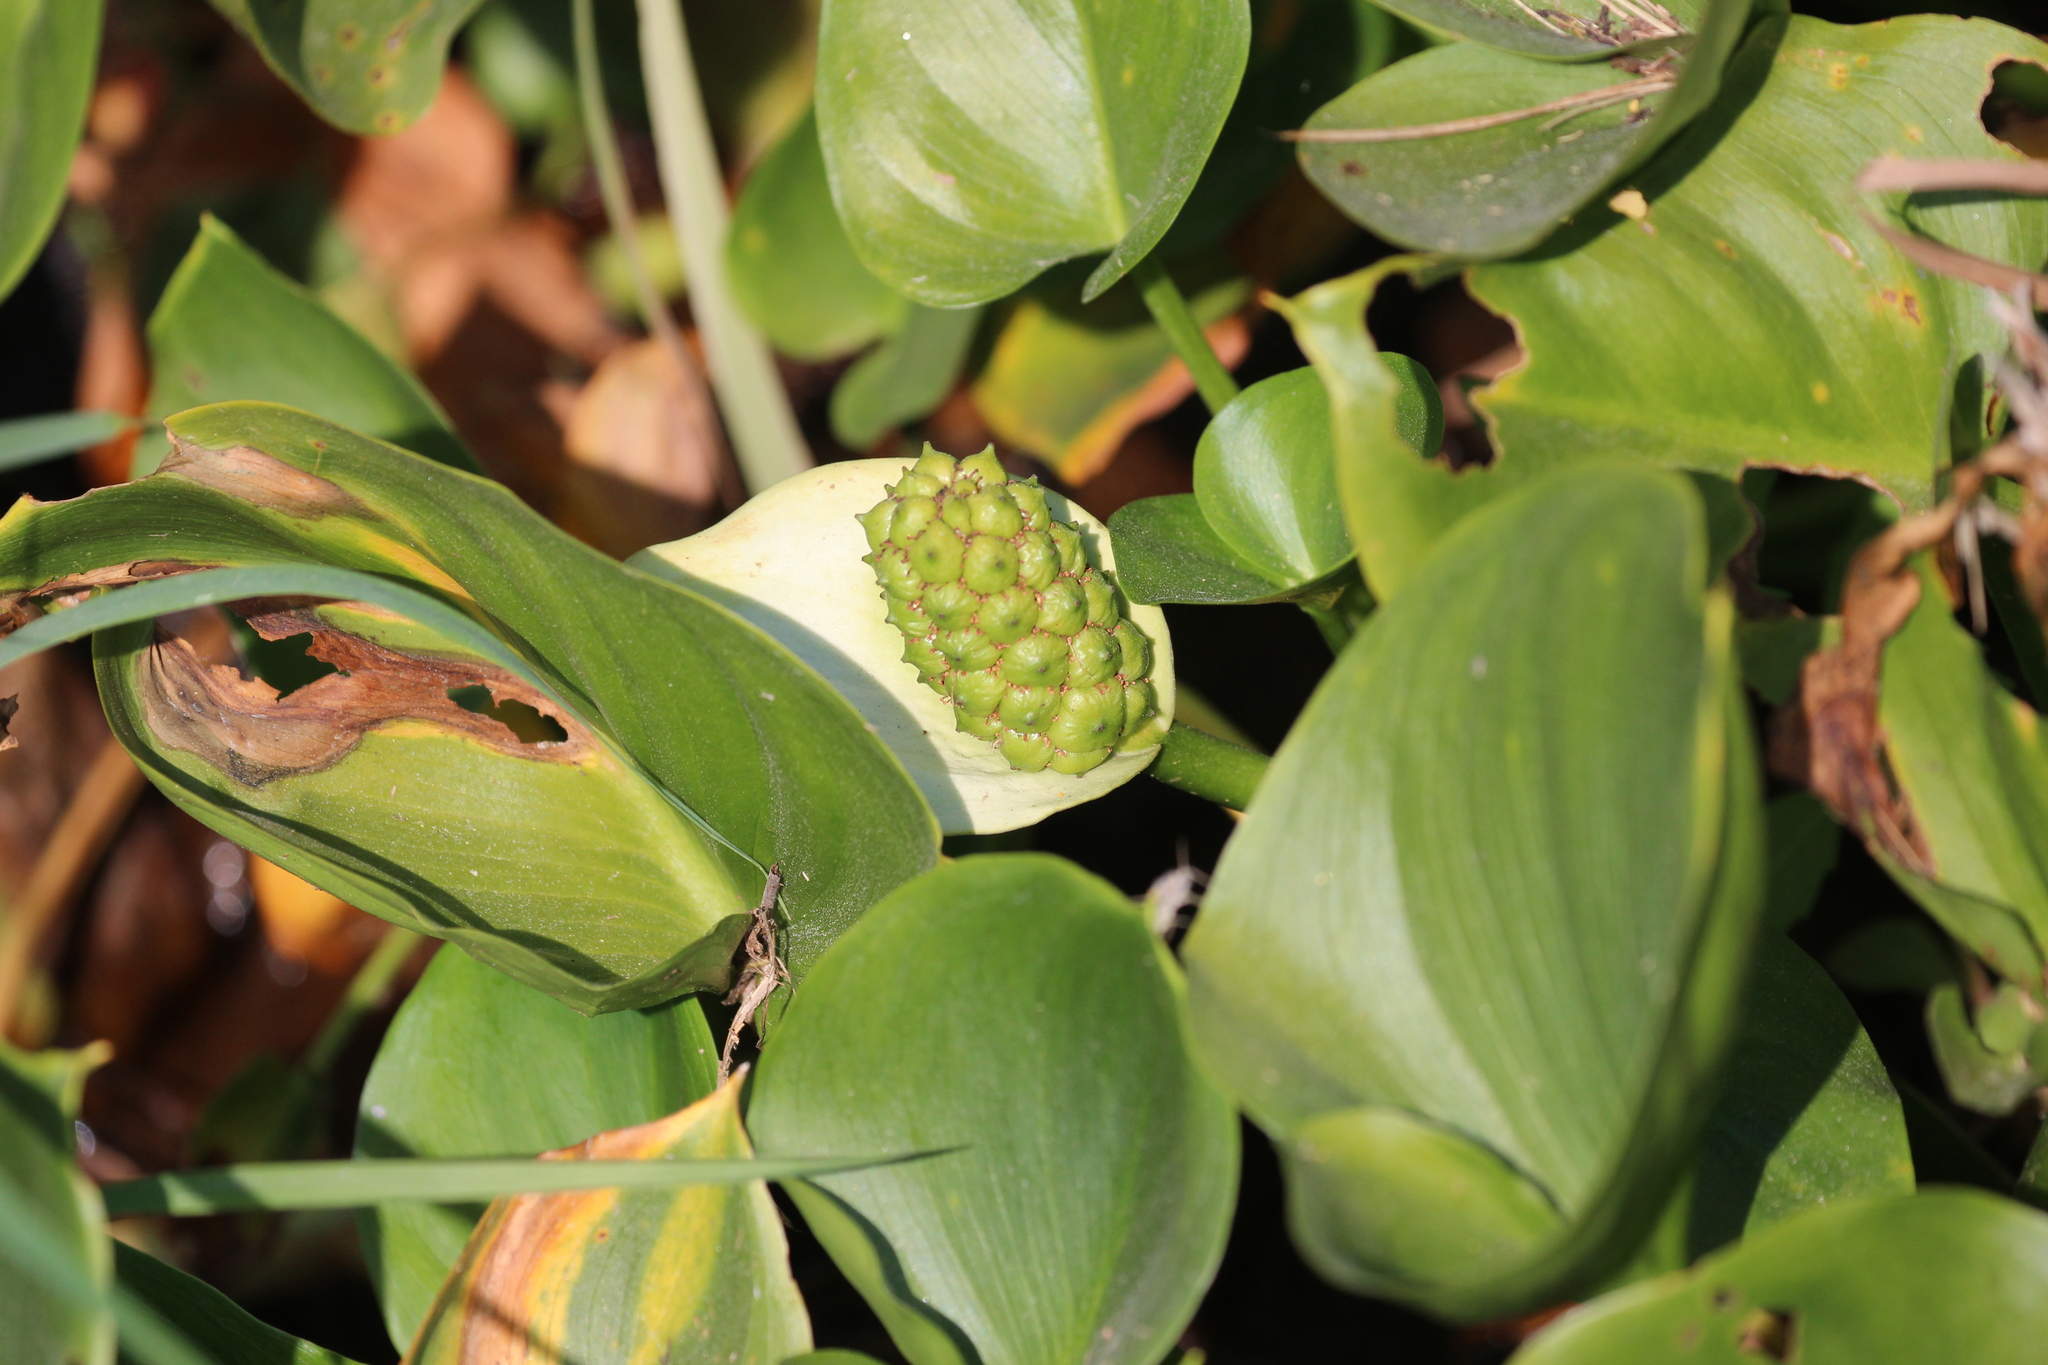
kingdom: Plantae
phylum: Tracheophyta
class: Liliopsida
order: Alismatales
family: Araceae
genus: Calla
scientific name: Calla palustris
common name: Bog arum
